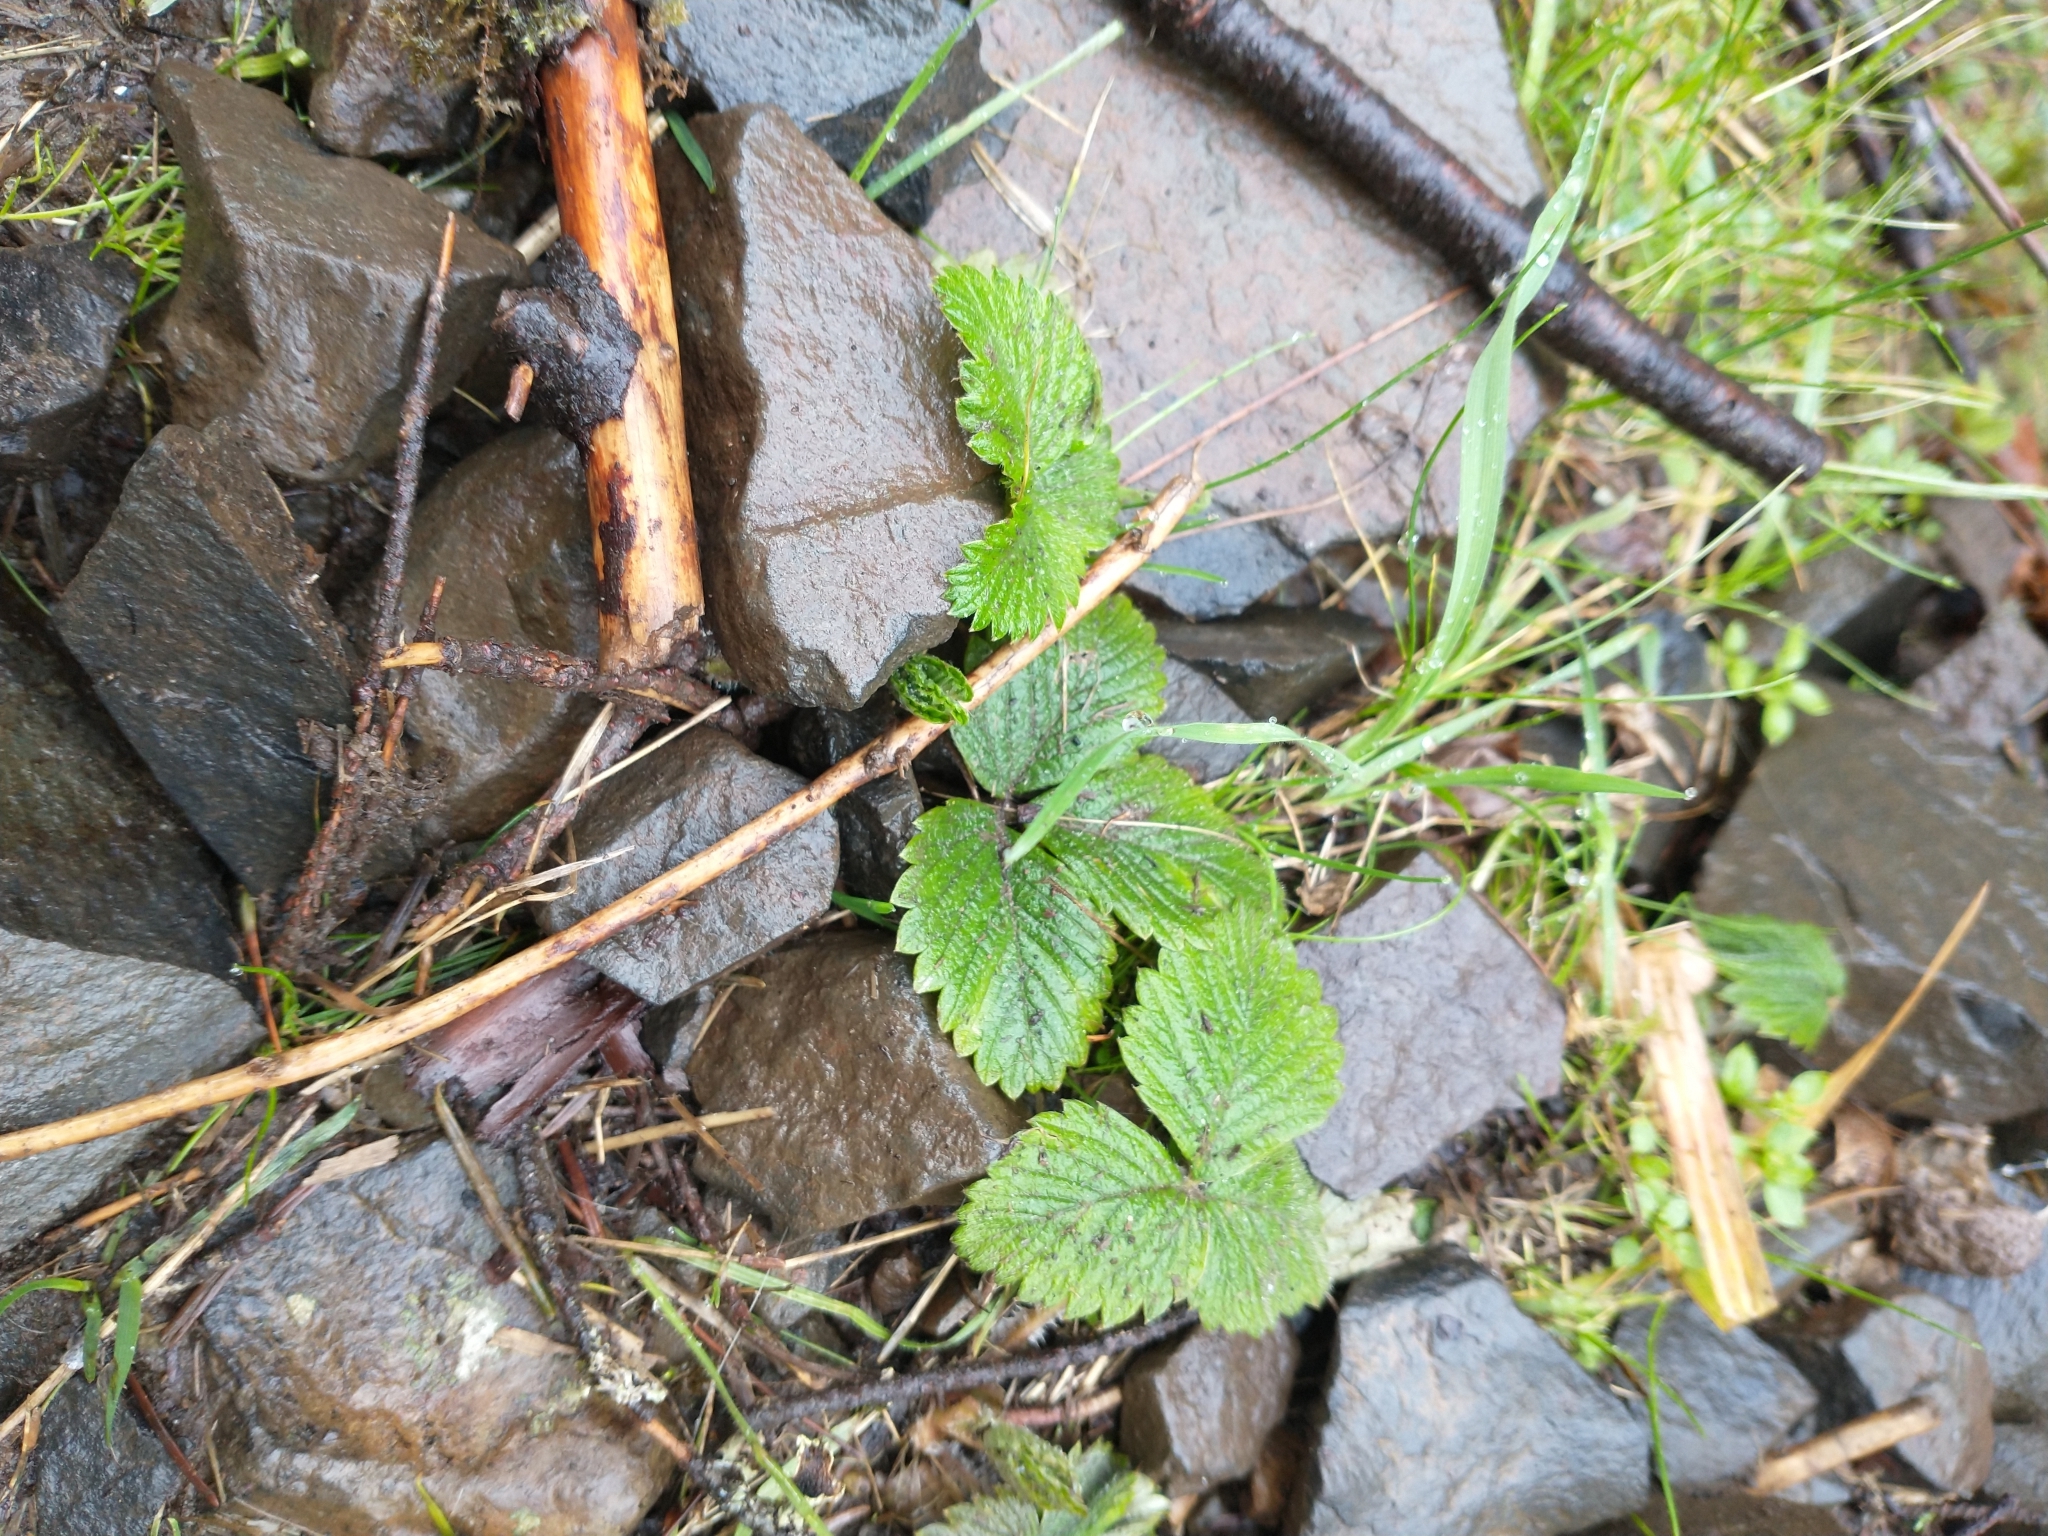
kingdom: Plantae
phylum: Tracheophyta
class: Magnoliopsida
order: Rosales
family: Rosaceae
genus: Fragaria
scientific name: Fragaria vesca
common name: Wild strawberry
